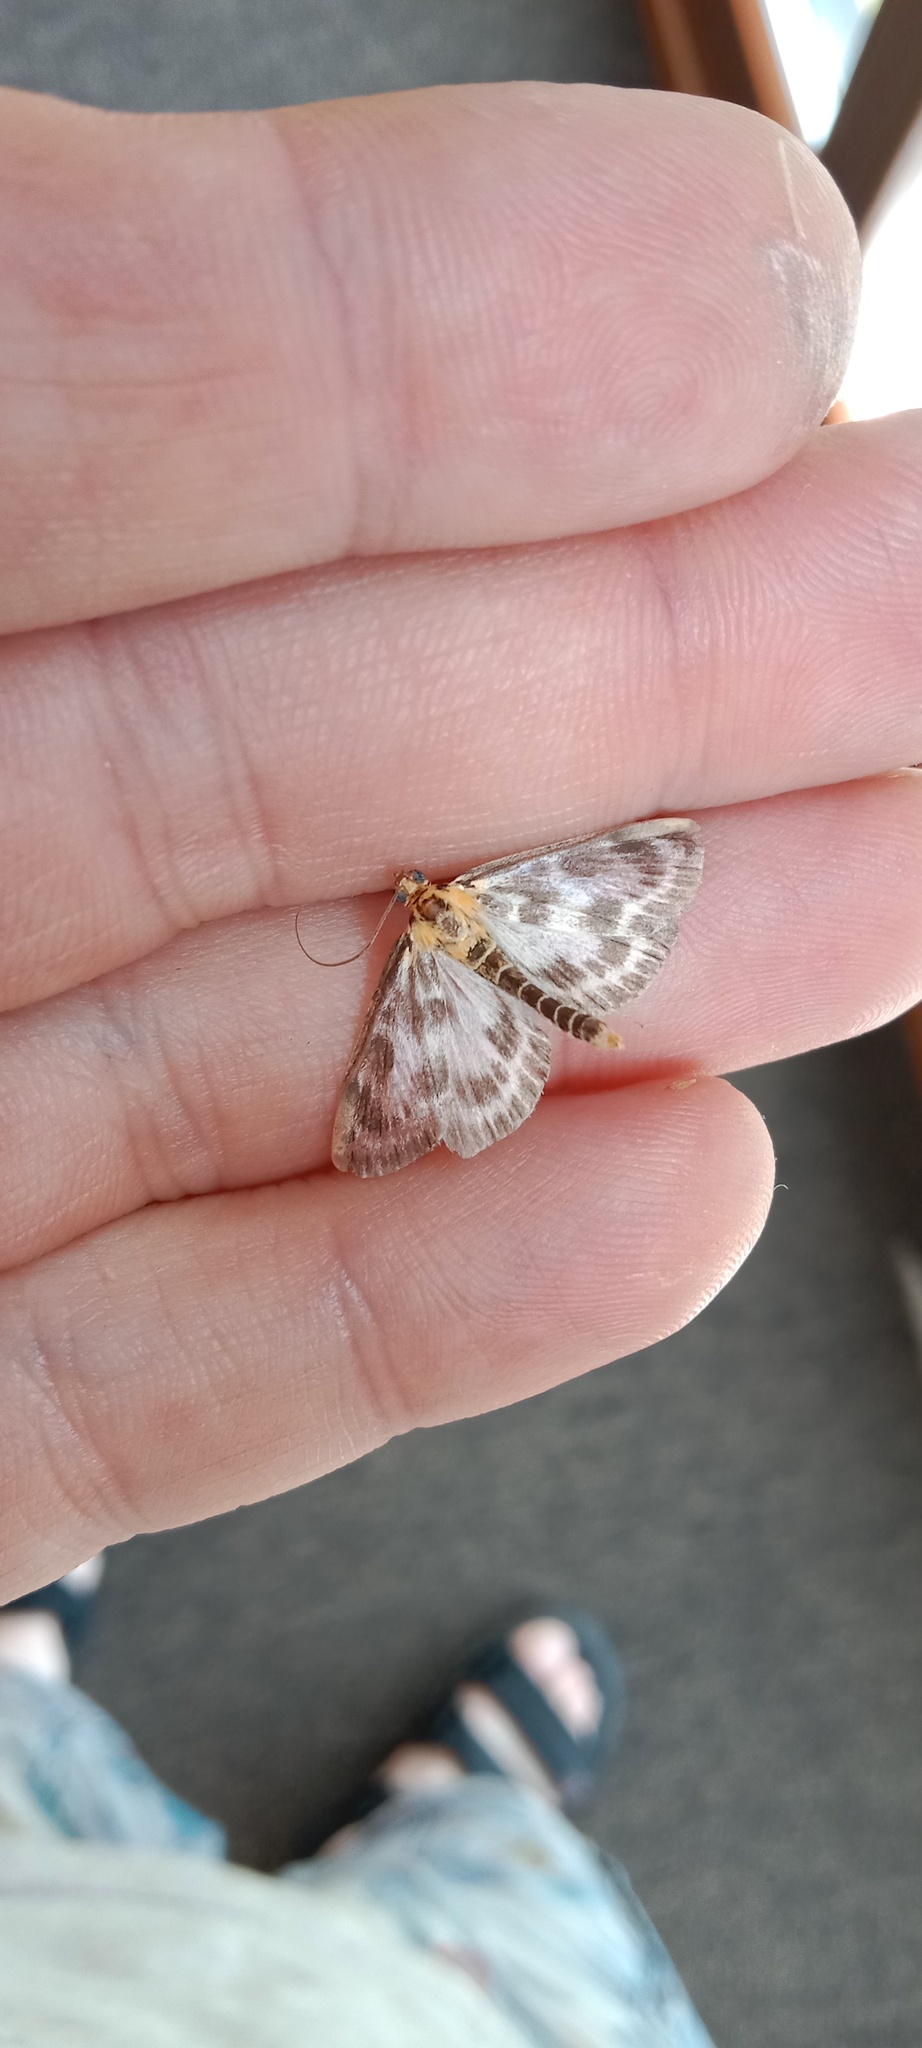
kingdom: Animalia
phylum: Arthropoda
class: Insecta
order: Lepidoptera
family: Crambidae
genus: Anania
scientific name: Anania hortulata
